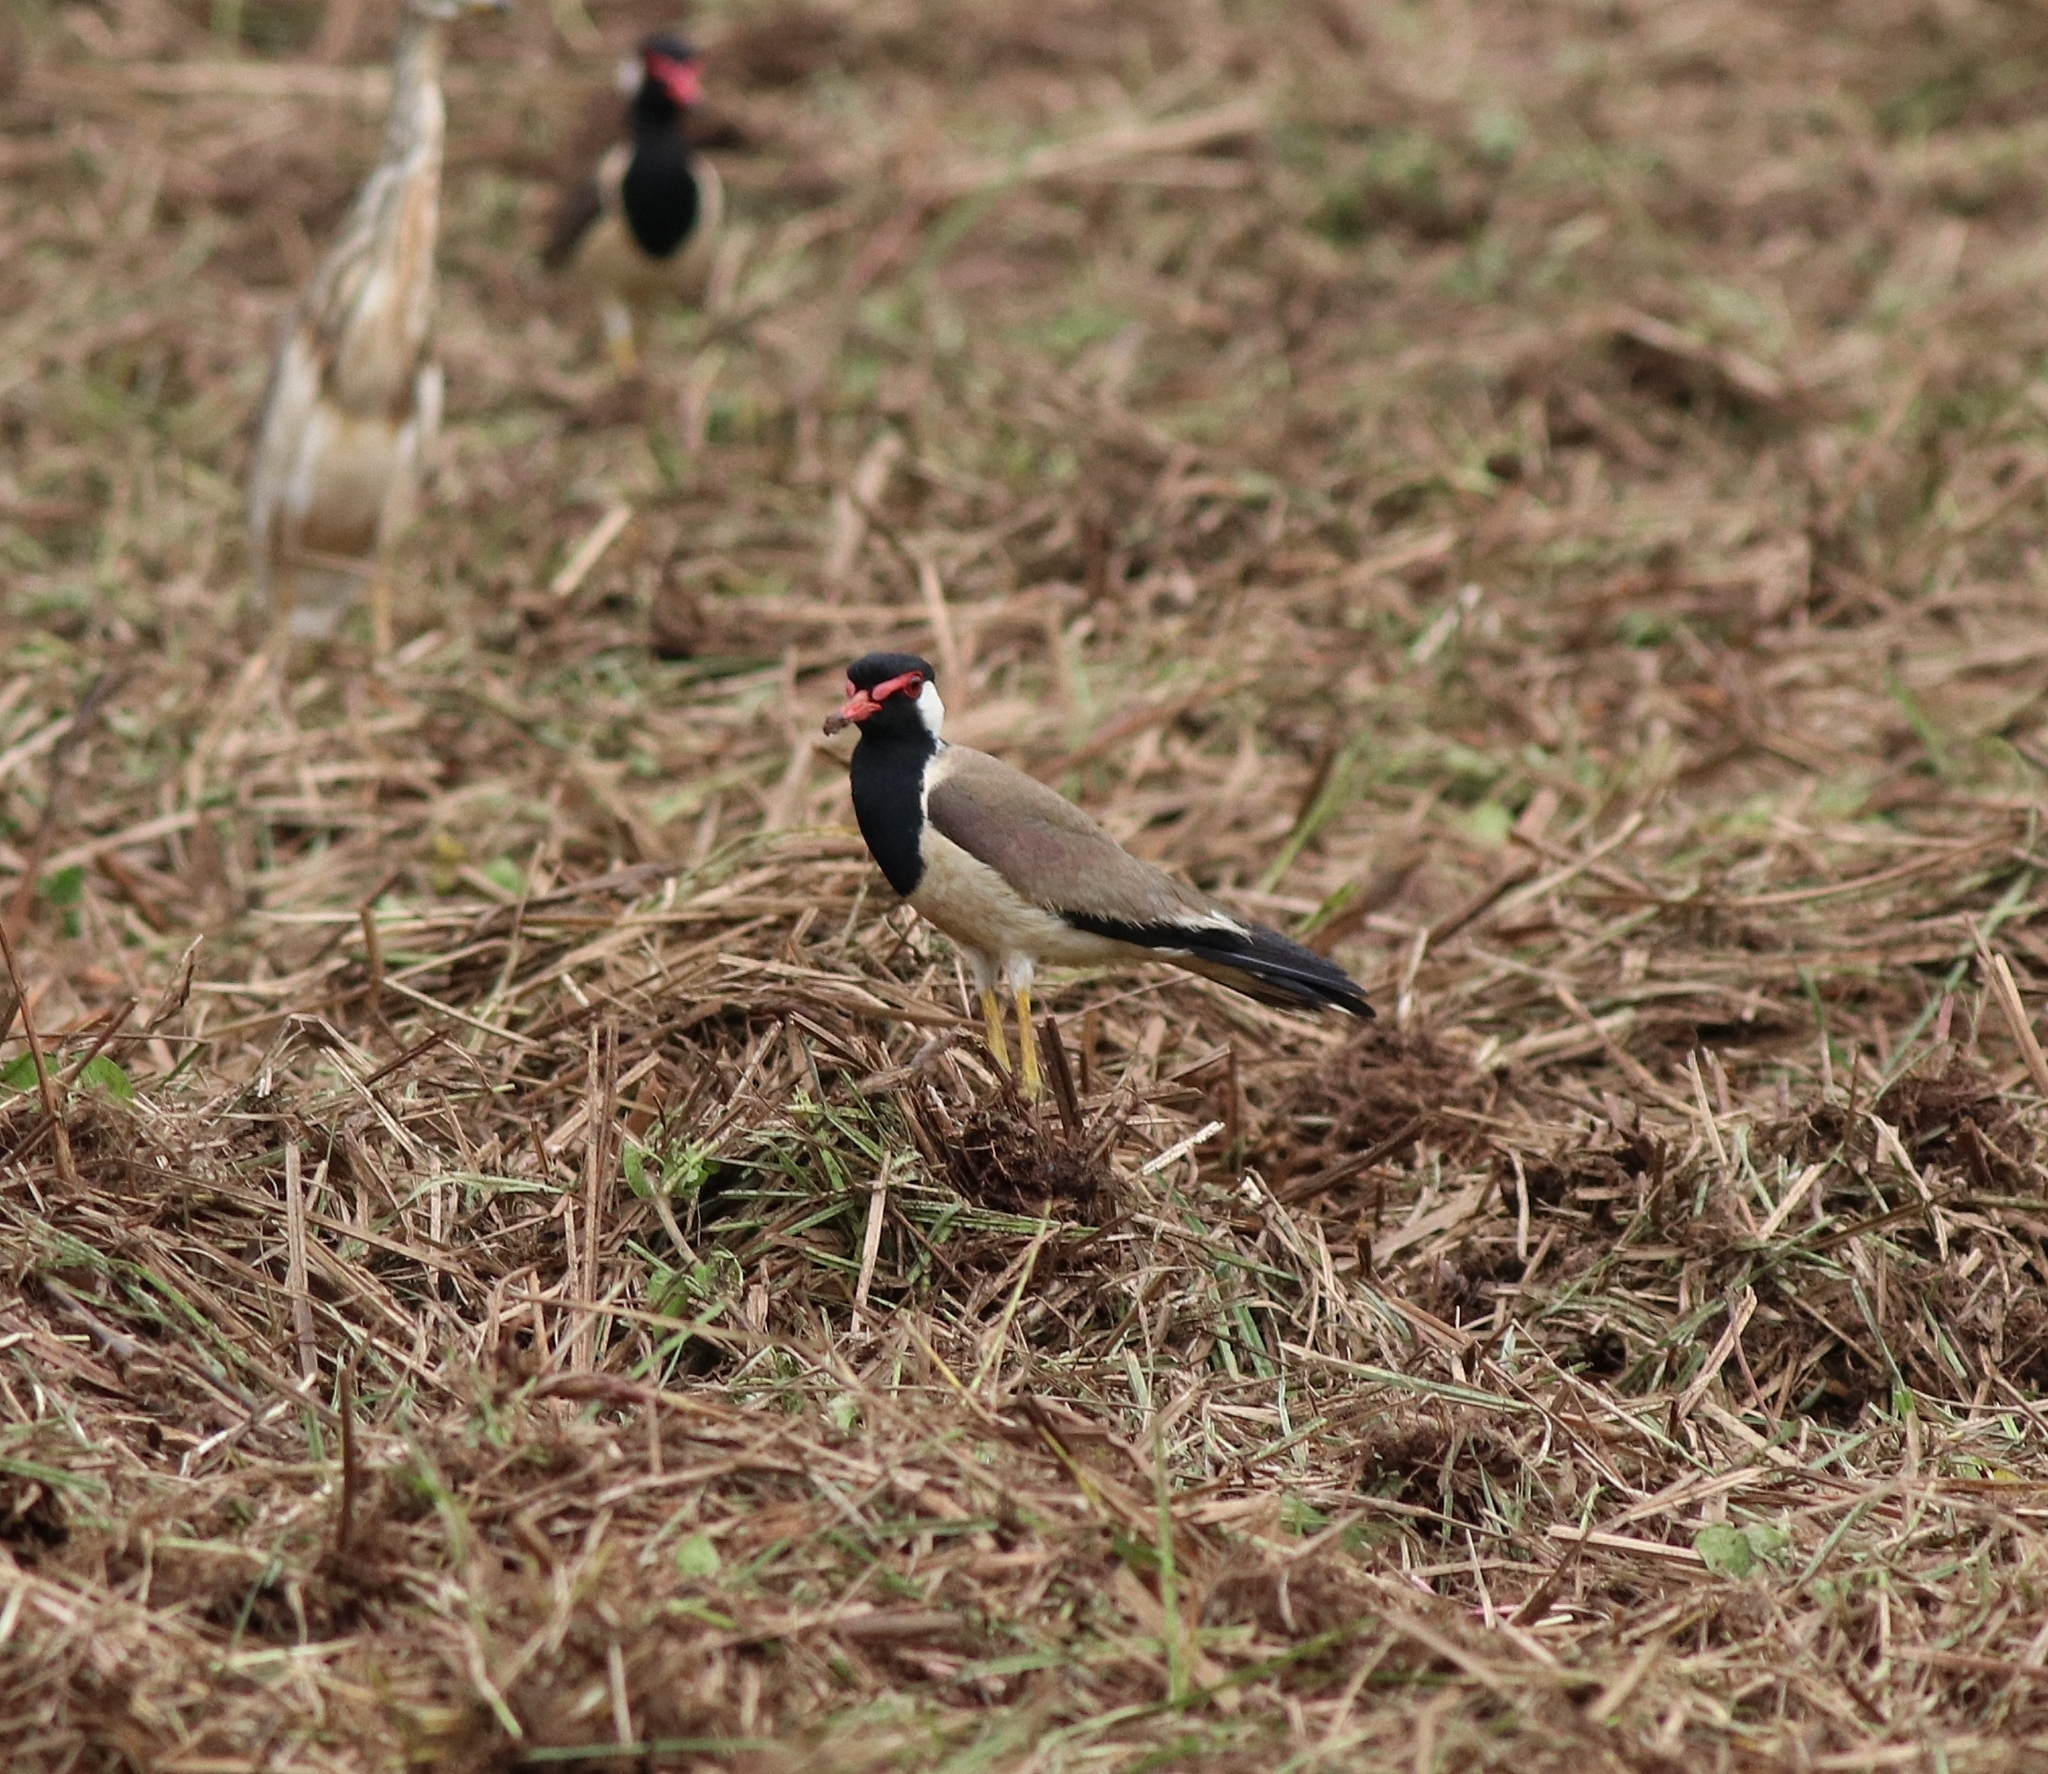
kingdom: Animalia
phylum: Chordata
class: Aves
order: Charadriiformes
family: Charadriidae
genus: Vanellus
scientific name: Vanellus indicus
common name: Red-wattled lapwing
